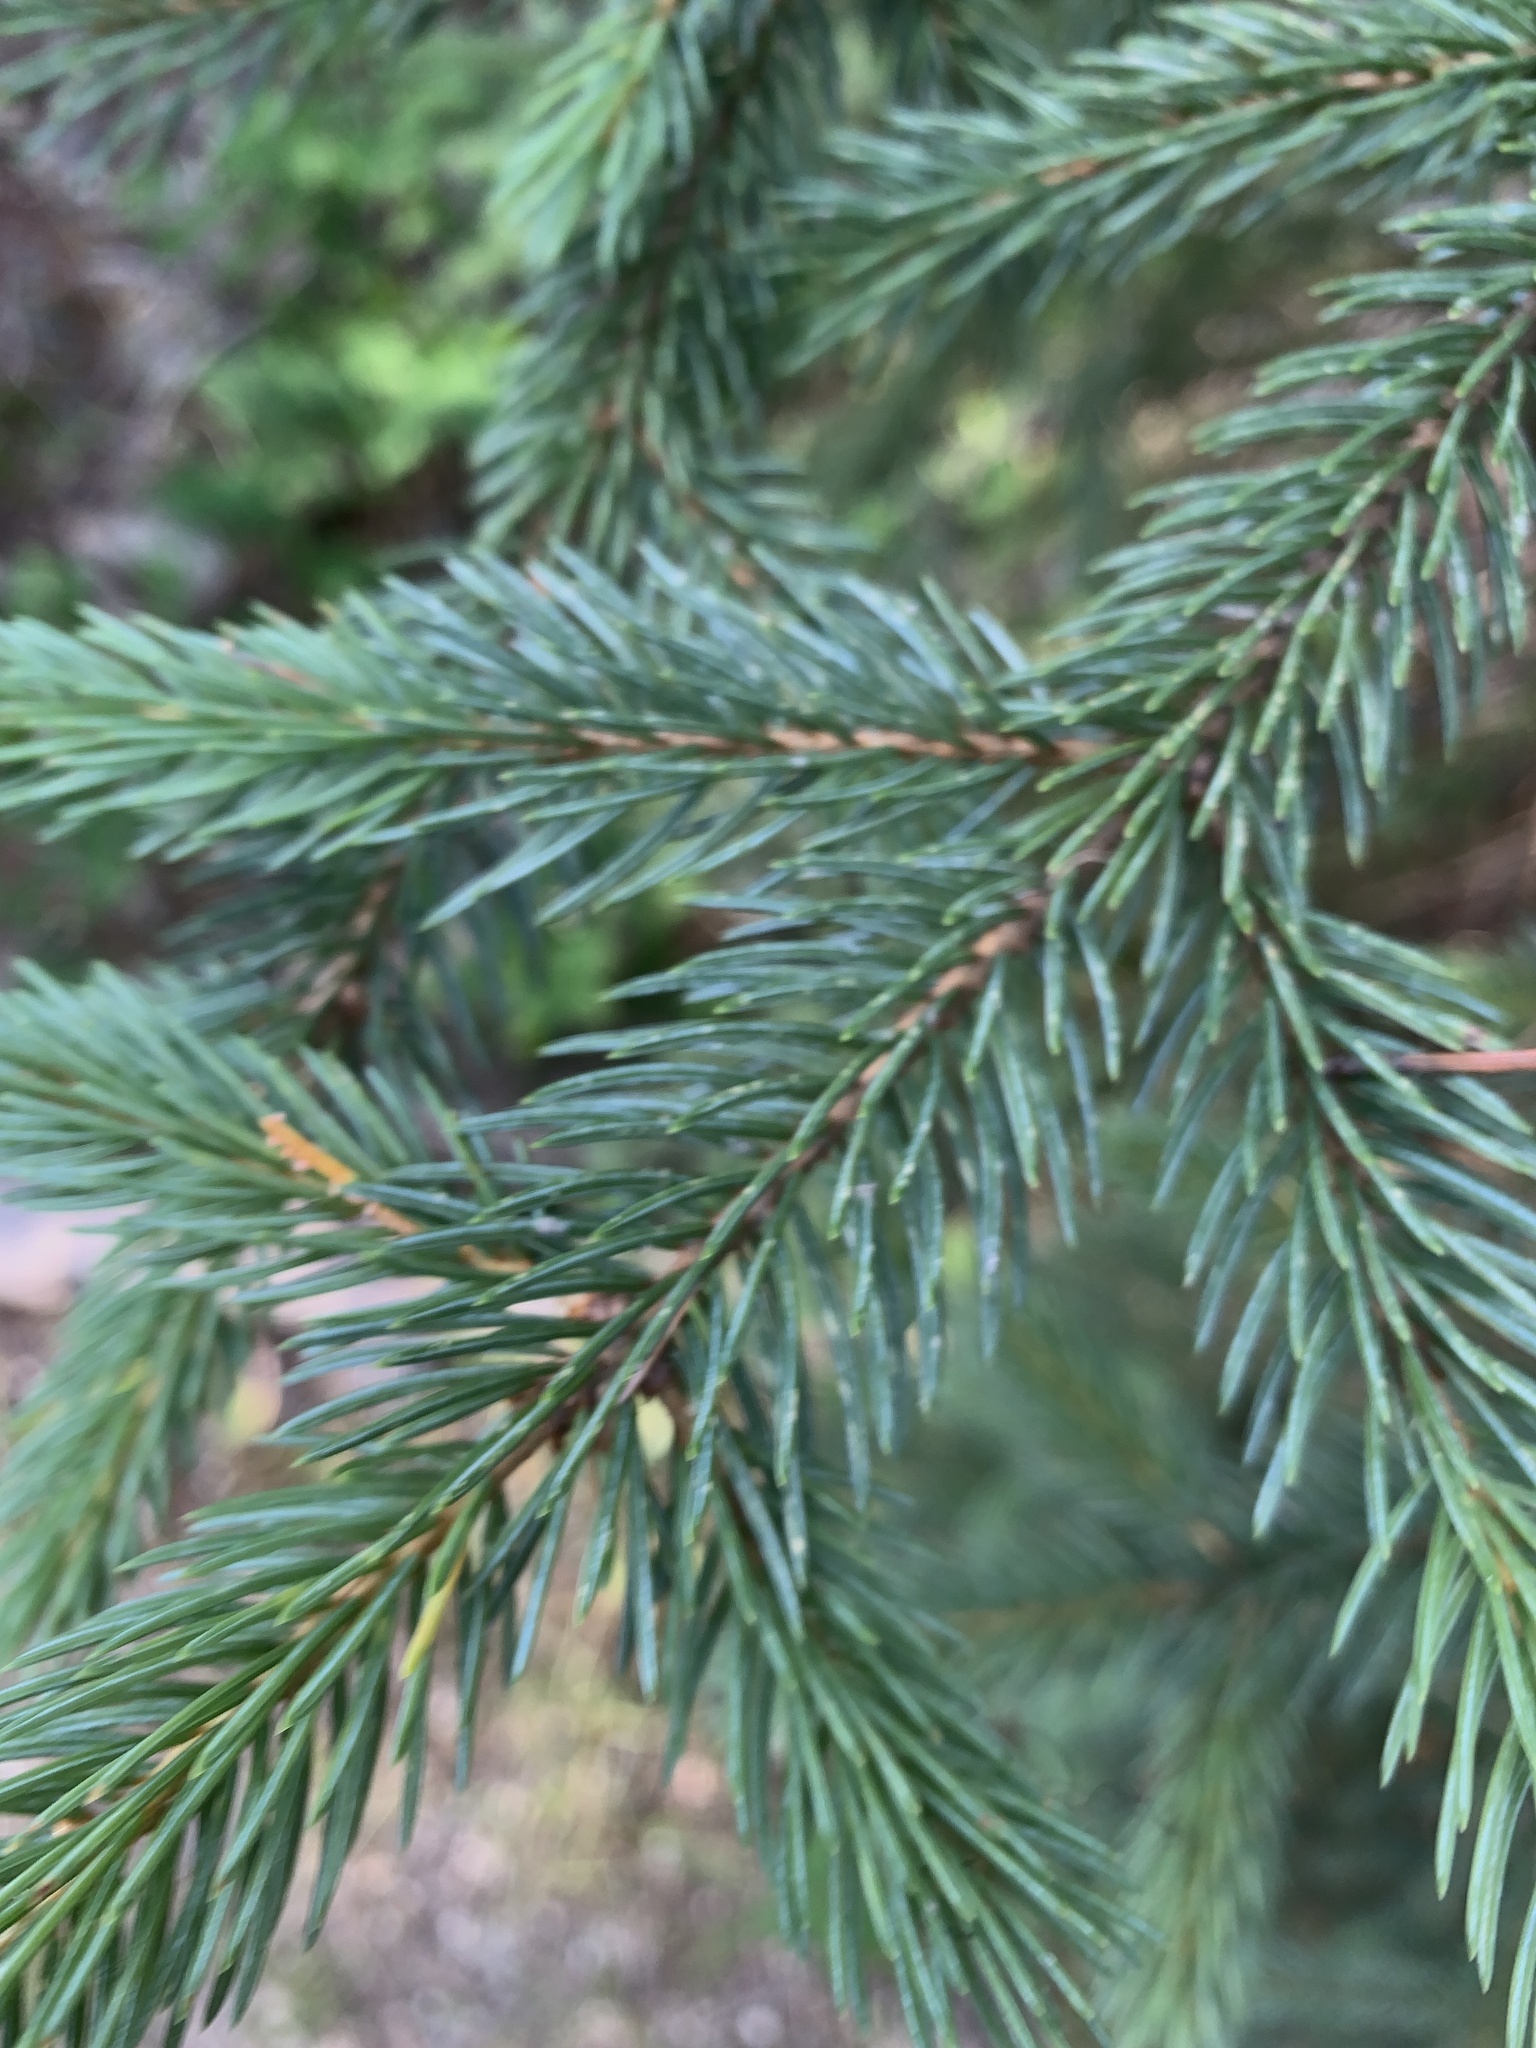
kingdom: Plantae
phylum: Tracheophyta
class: Pinopsida
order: Pinales
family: Pinaceae
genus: Picea
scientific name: Picea engelmannii
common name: Engelmann spruce
